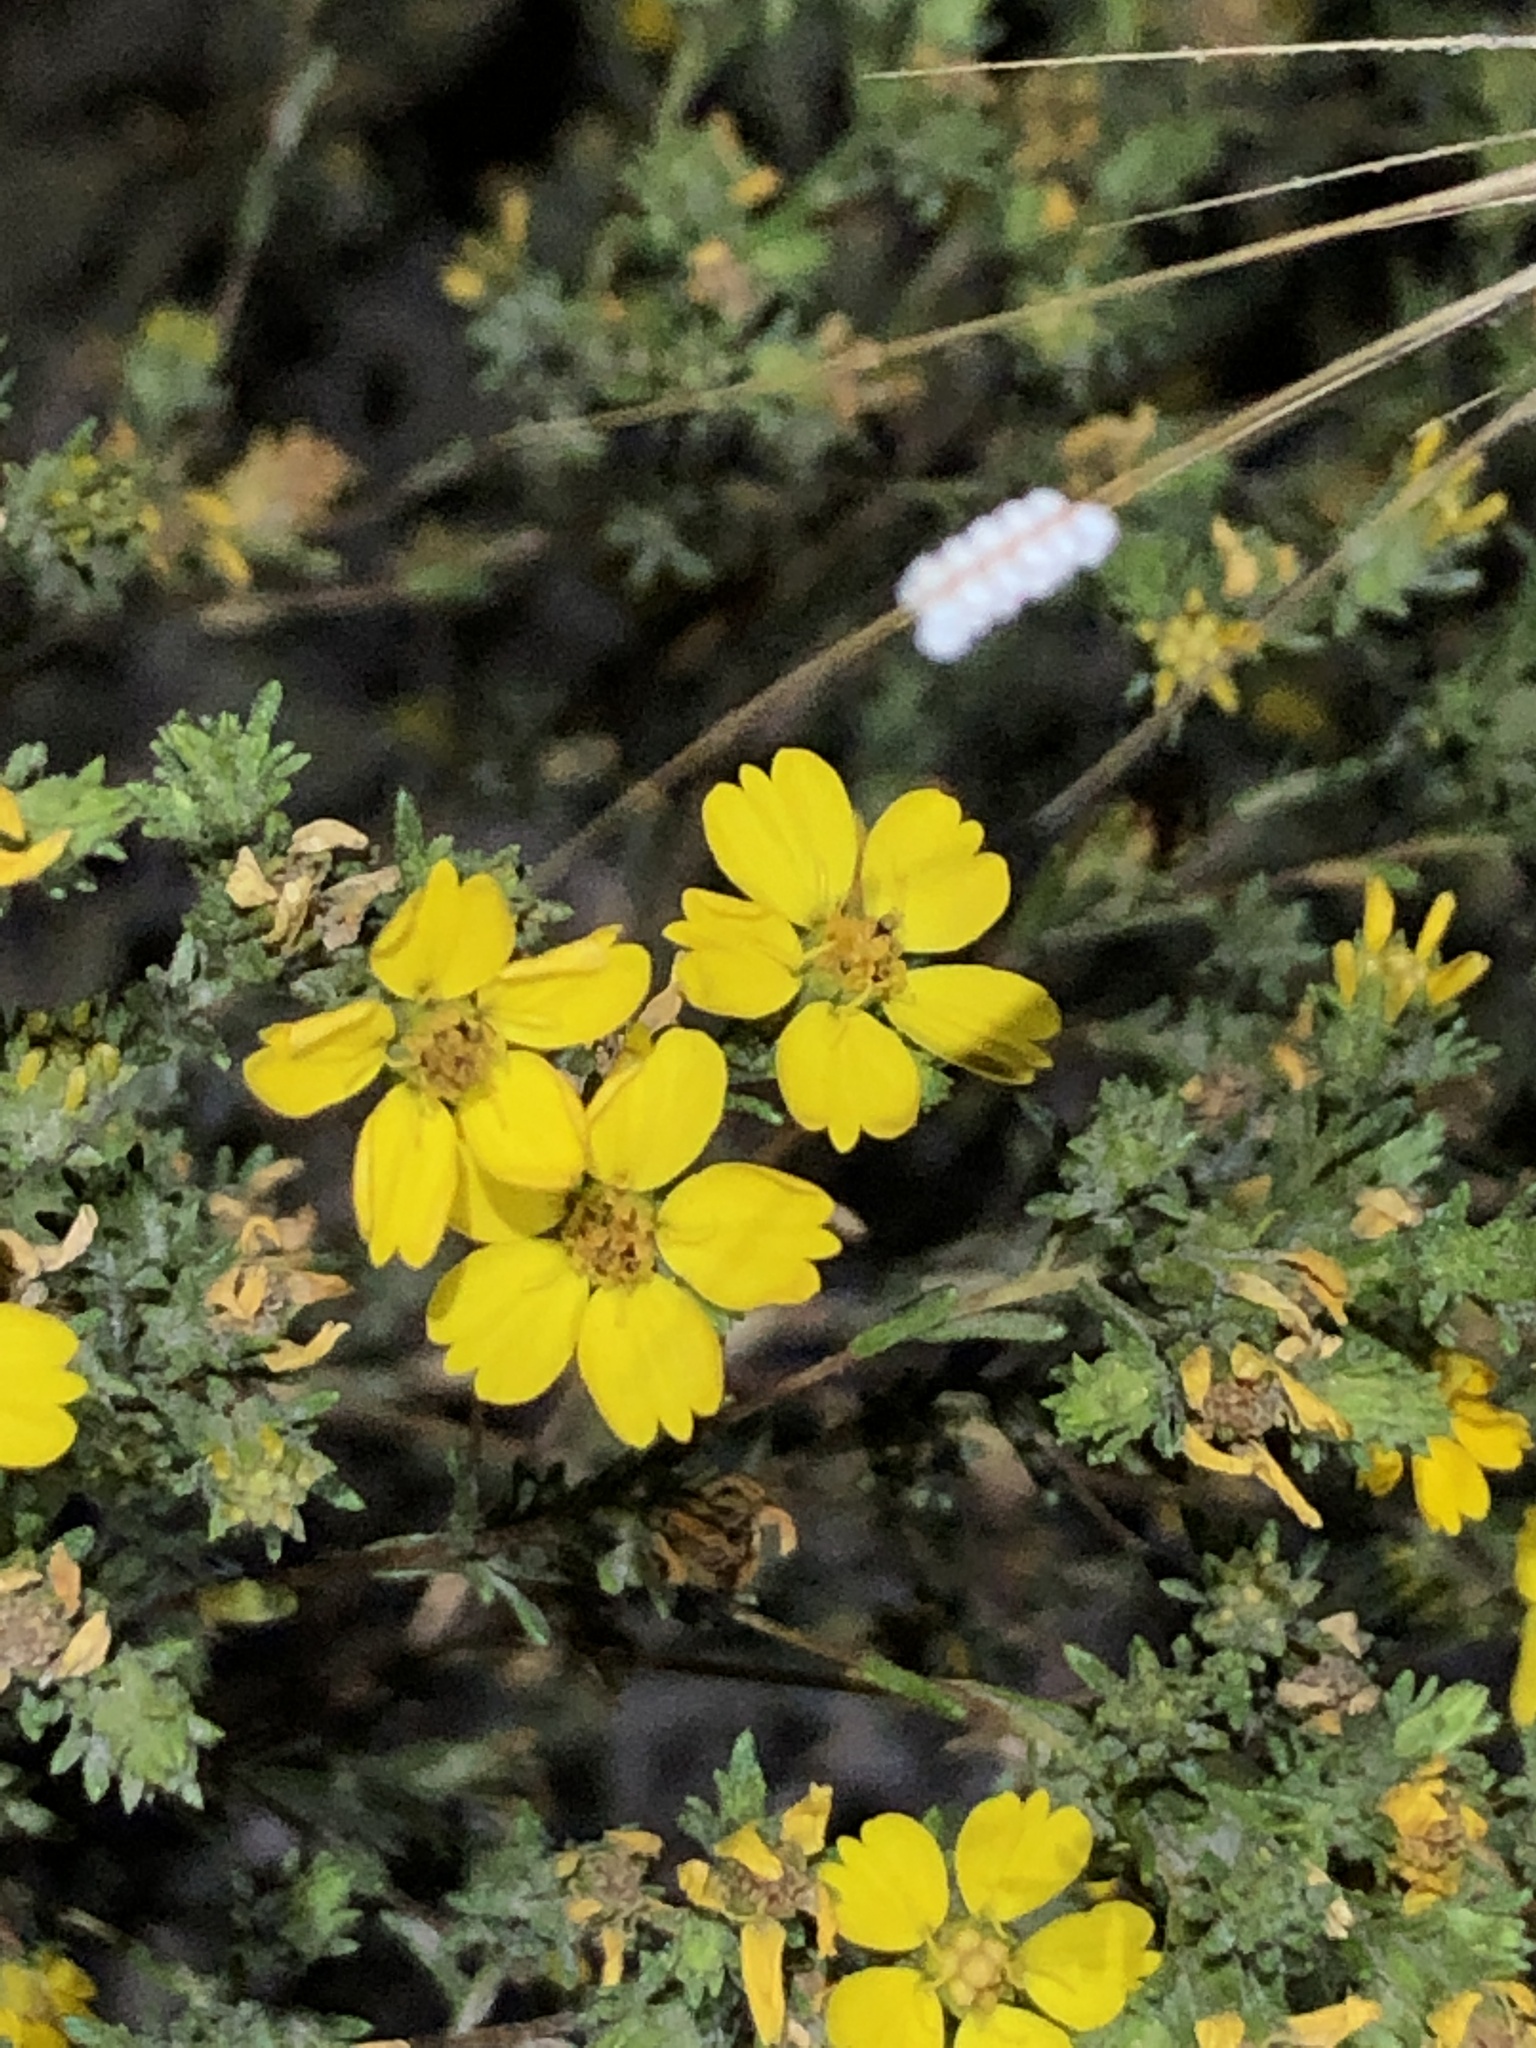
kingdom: Plantae
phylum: Tracheophyta
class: Magnoliopsida
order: Asterales
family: Asteraceae
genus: Deinandra
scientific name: Deinandra fasciculata
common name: Clustered tarweed
